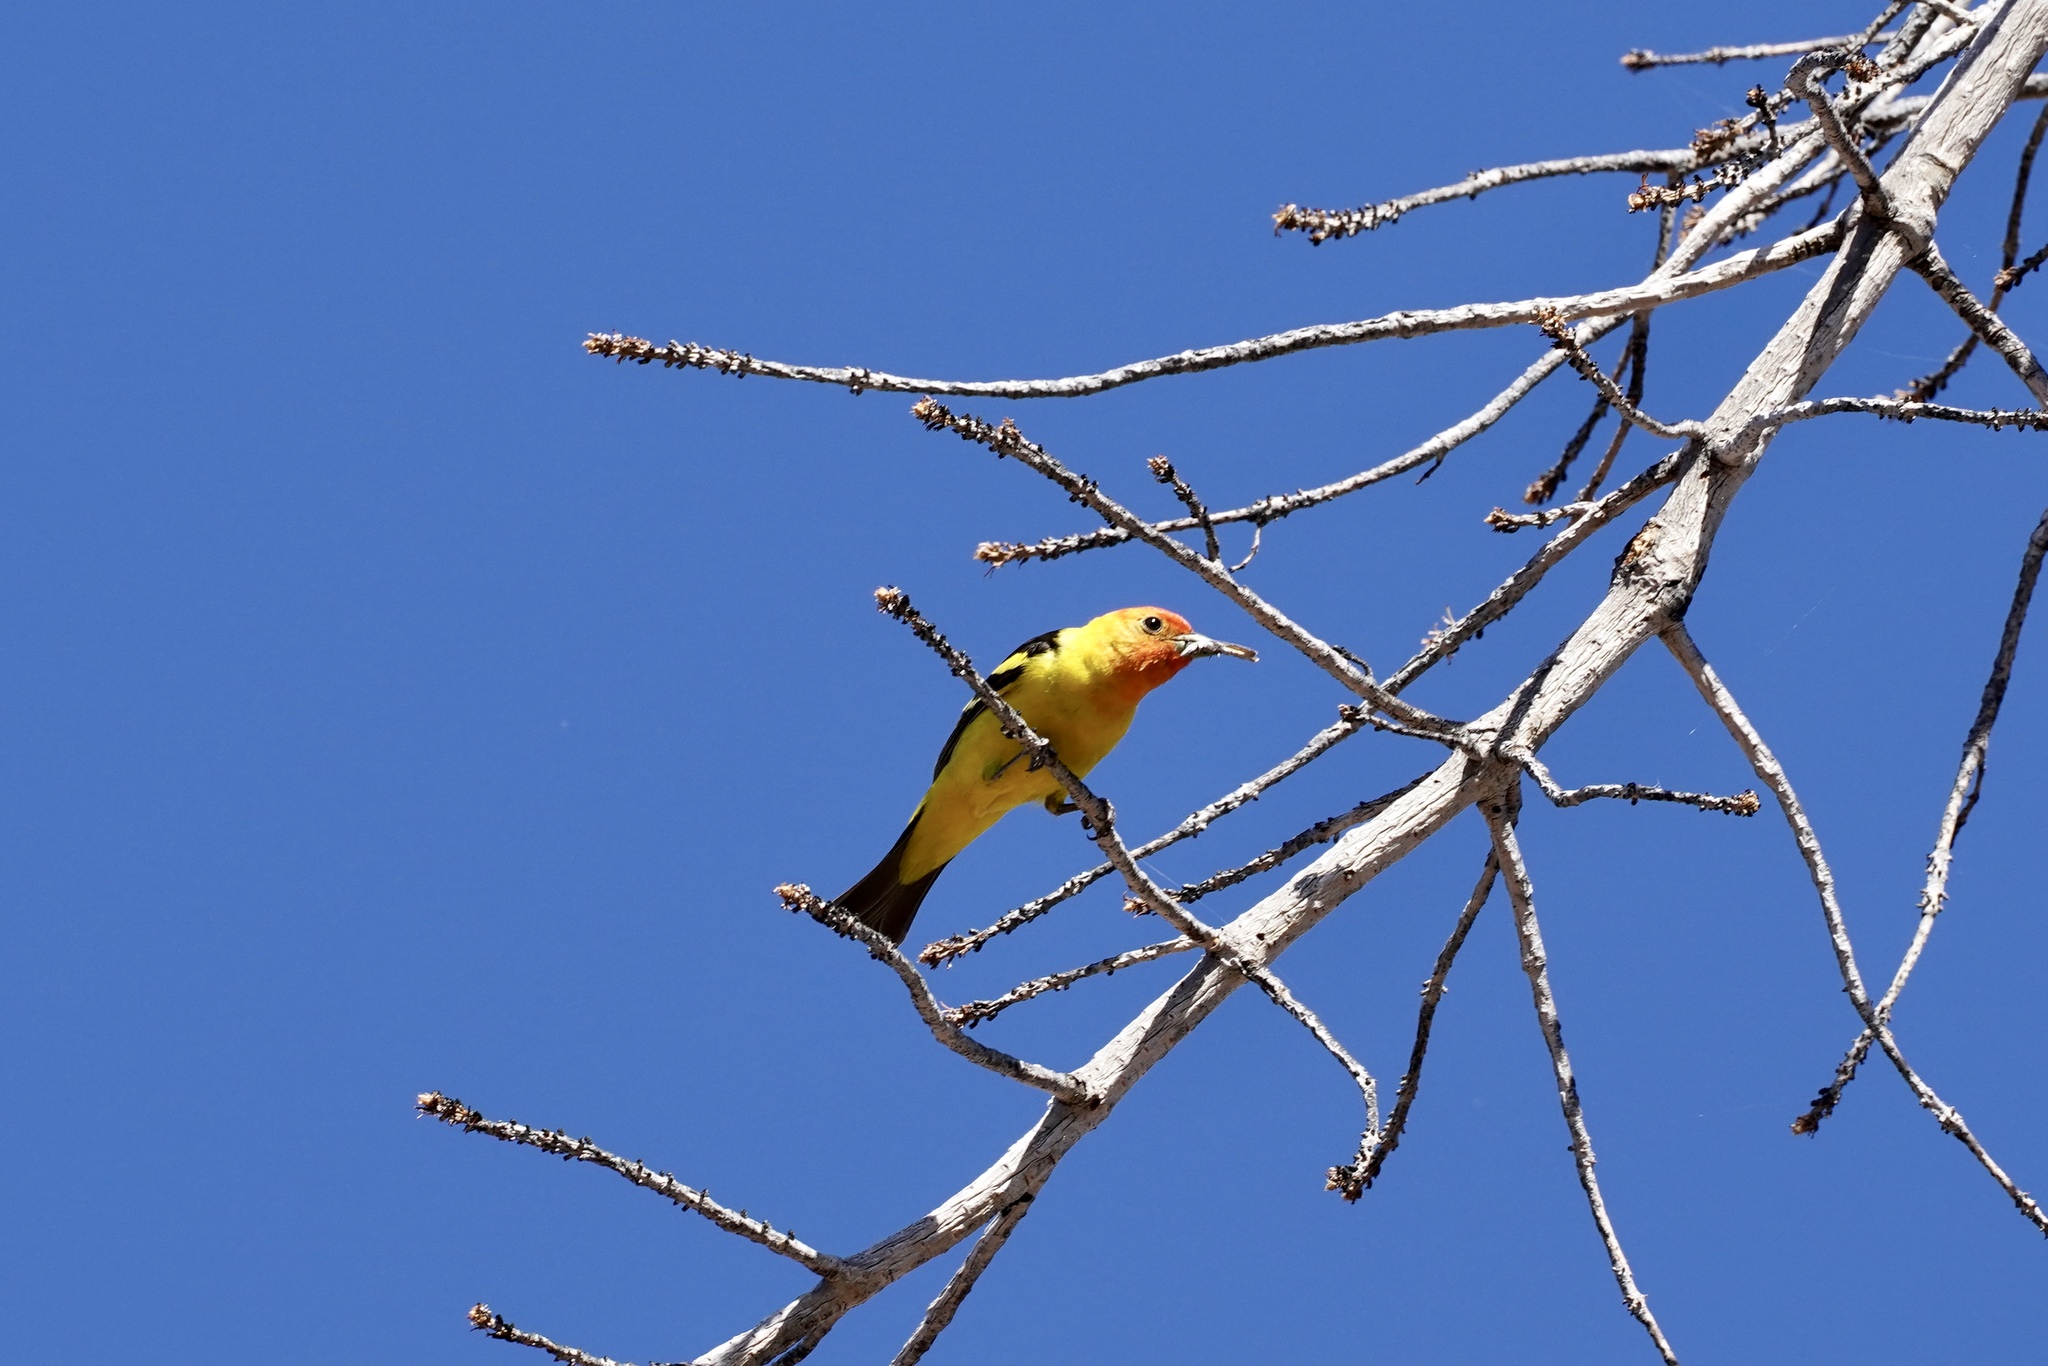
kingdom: Animalia
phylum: Chordata
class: Aves
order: Passeriformes
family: Cardinalidae
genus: Piranga
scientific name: Piranga ludoviciana
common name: Western tanager
